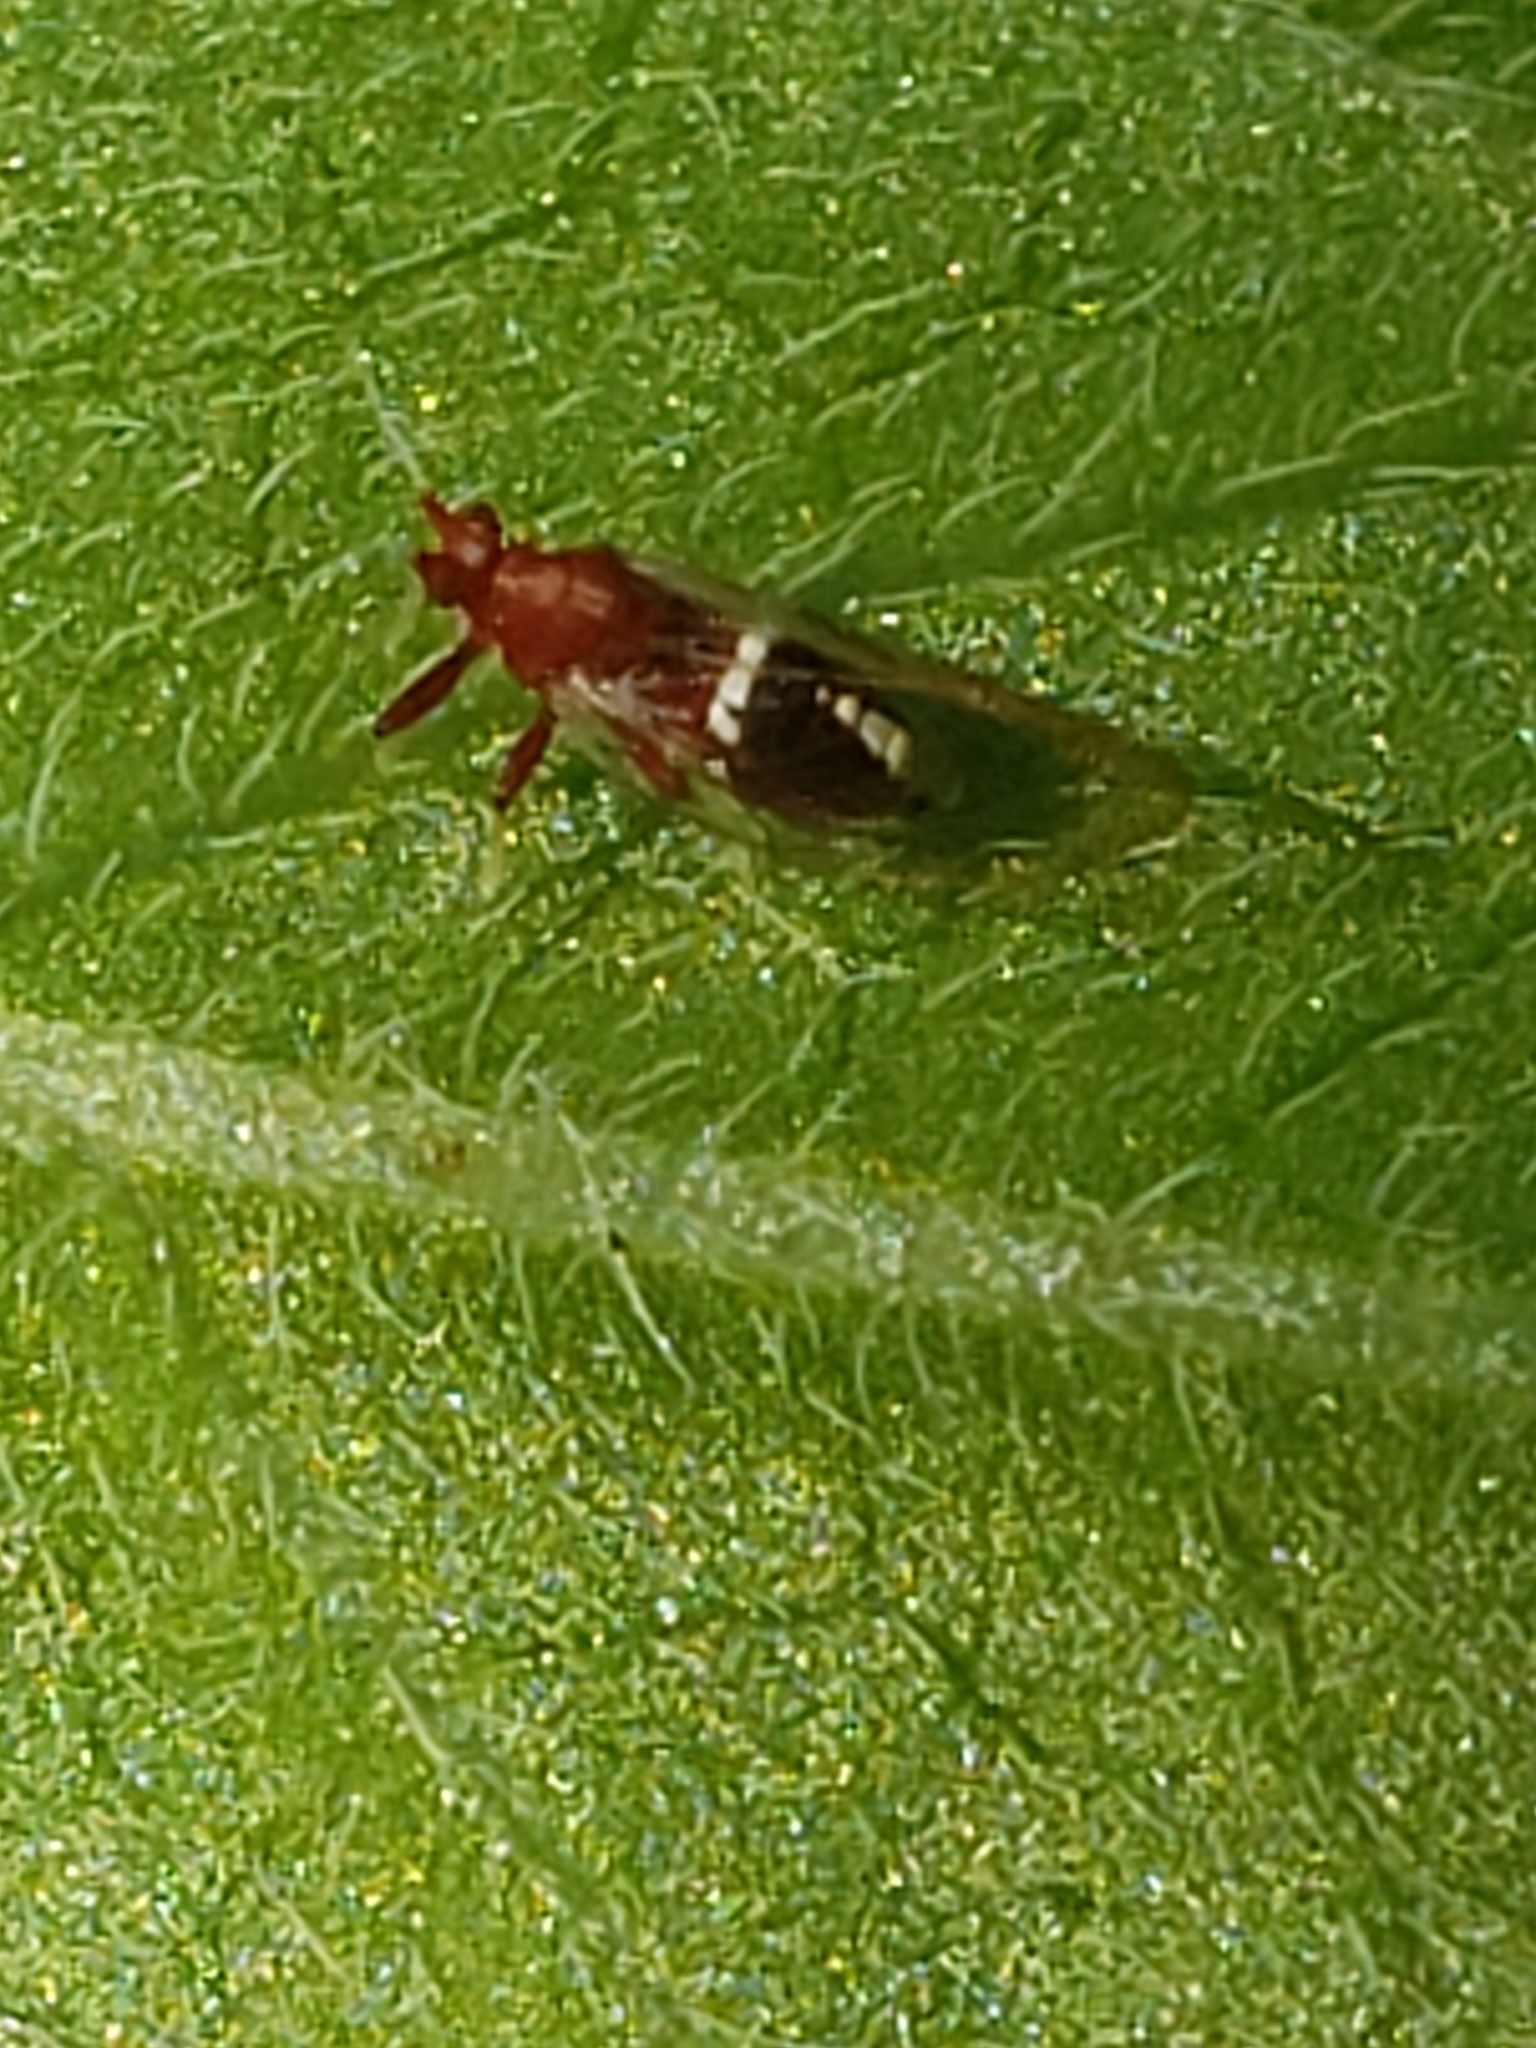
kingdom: Animalia
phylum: Arthropoda
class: Insecta
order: Hemiptera
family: Triozidae
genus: Bactericera
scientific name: Bactericera antennata
